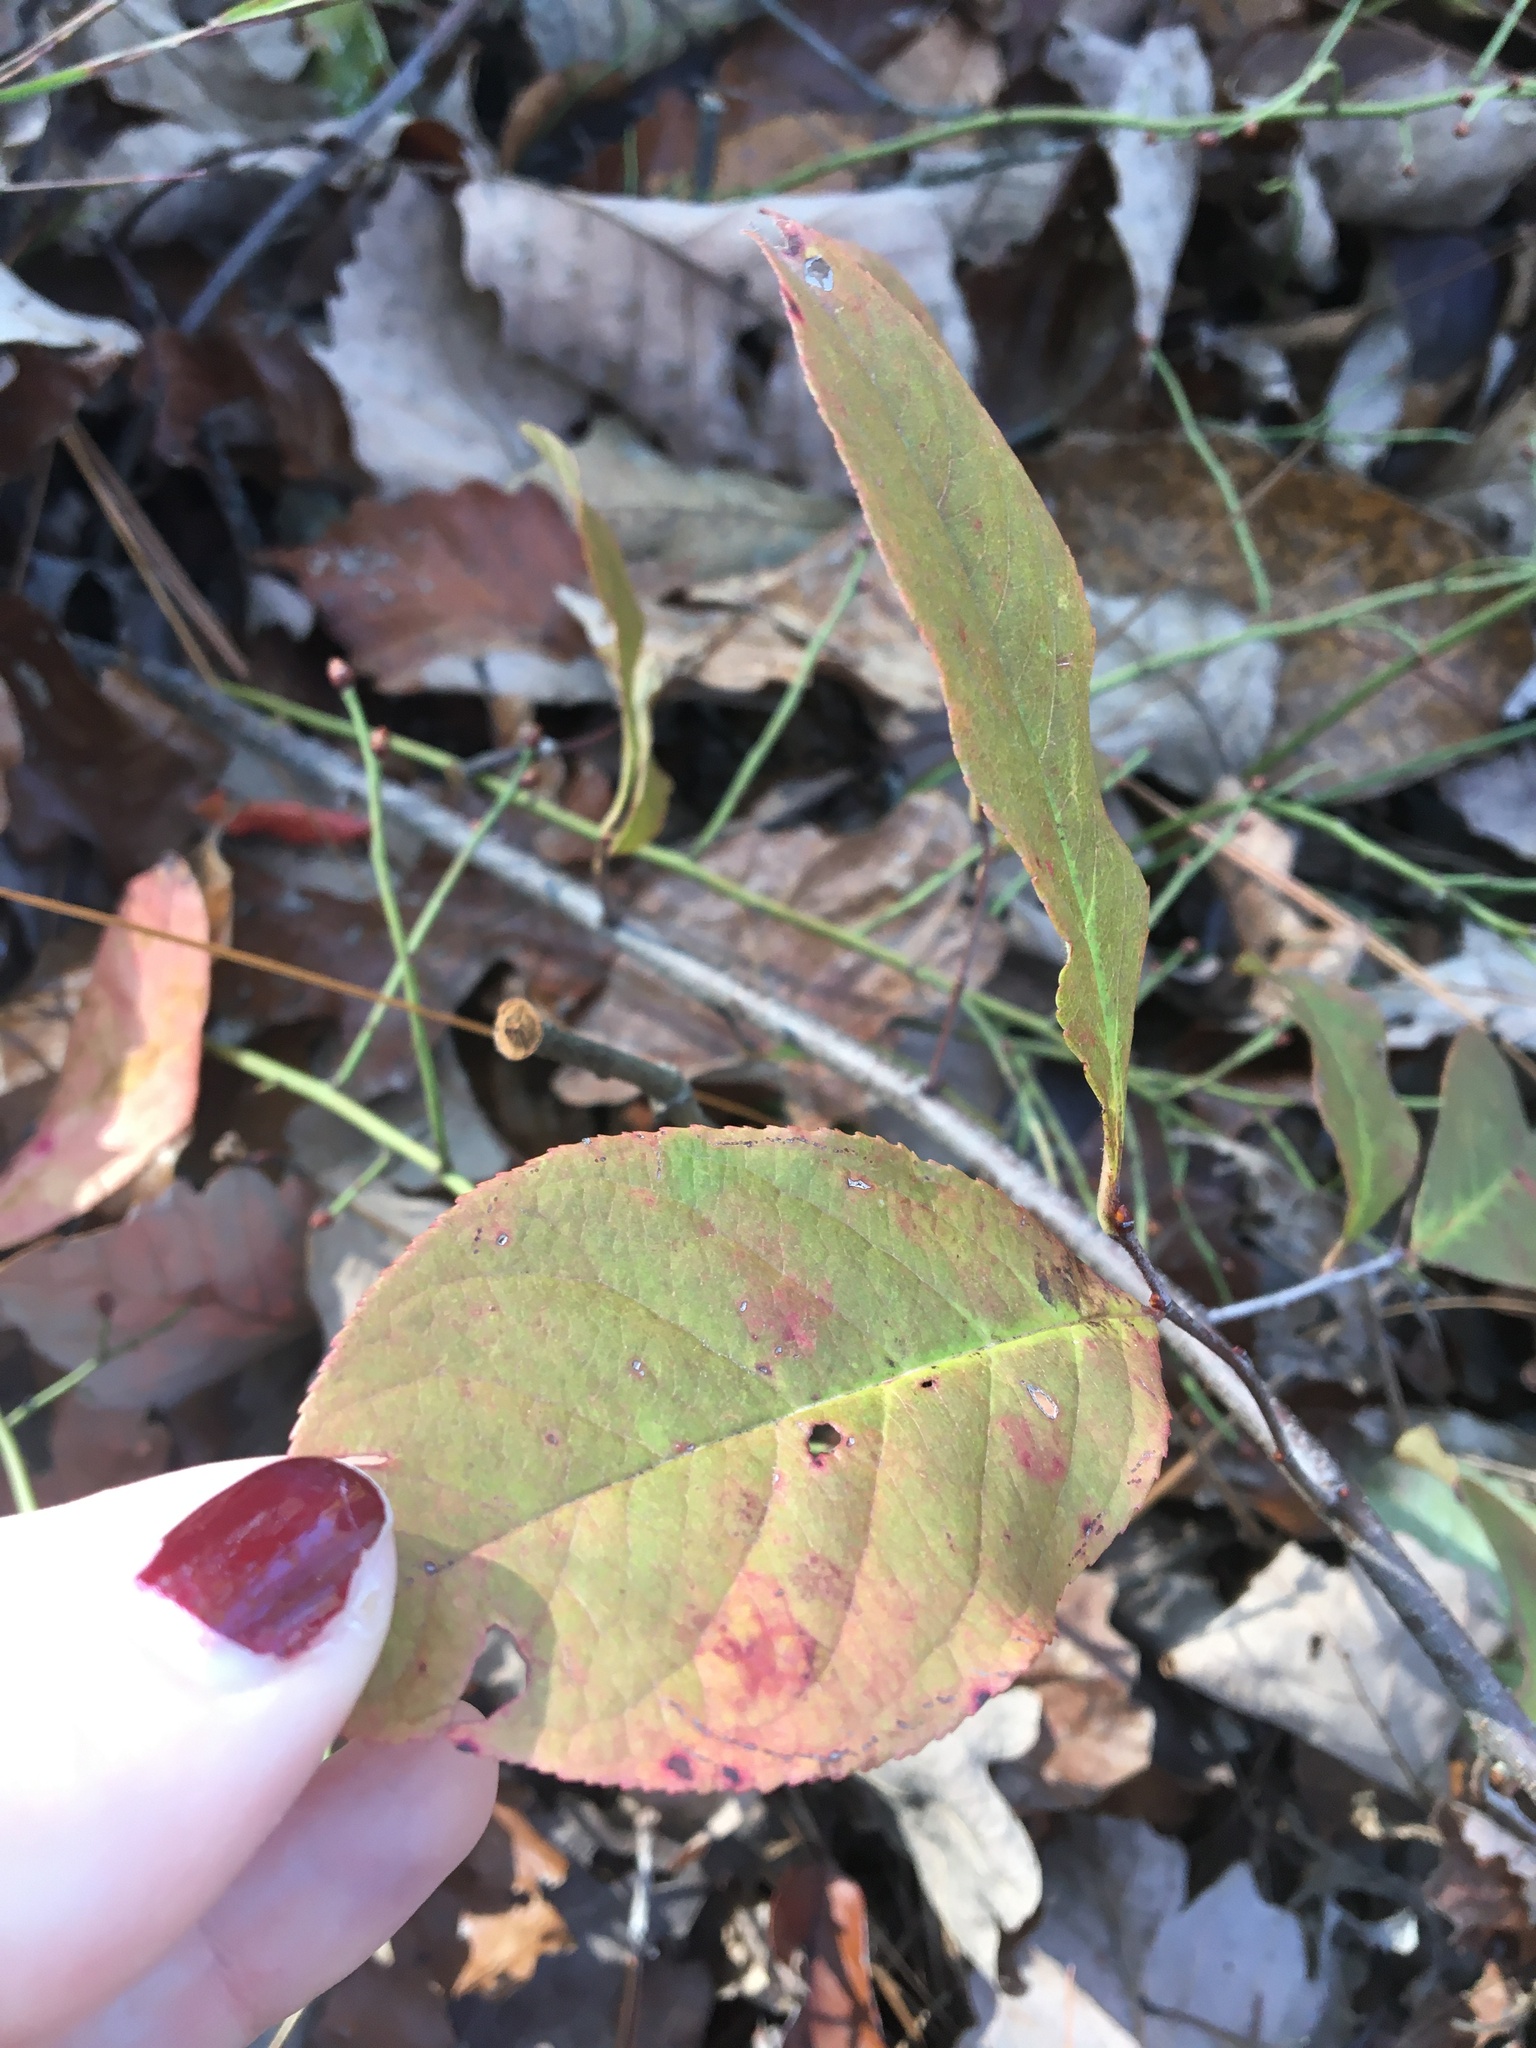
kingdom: Plantae
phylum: Tracheophyta
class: Magnoliopsida
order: Rosales
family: Rosaceae
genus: Prunus
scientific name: Prunus alabamensis
